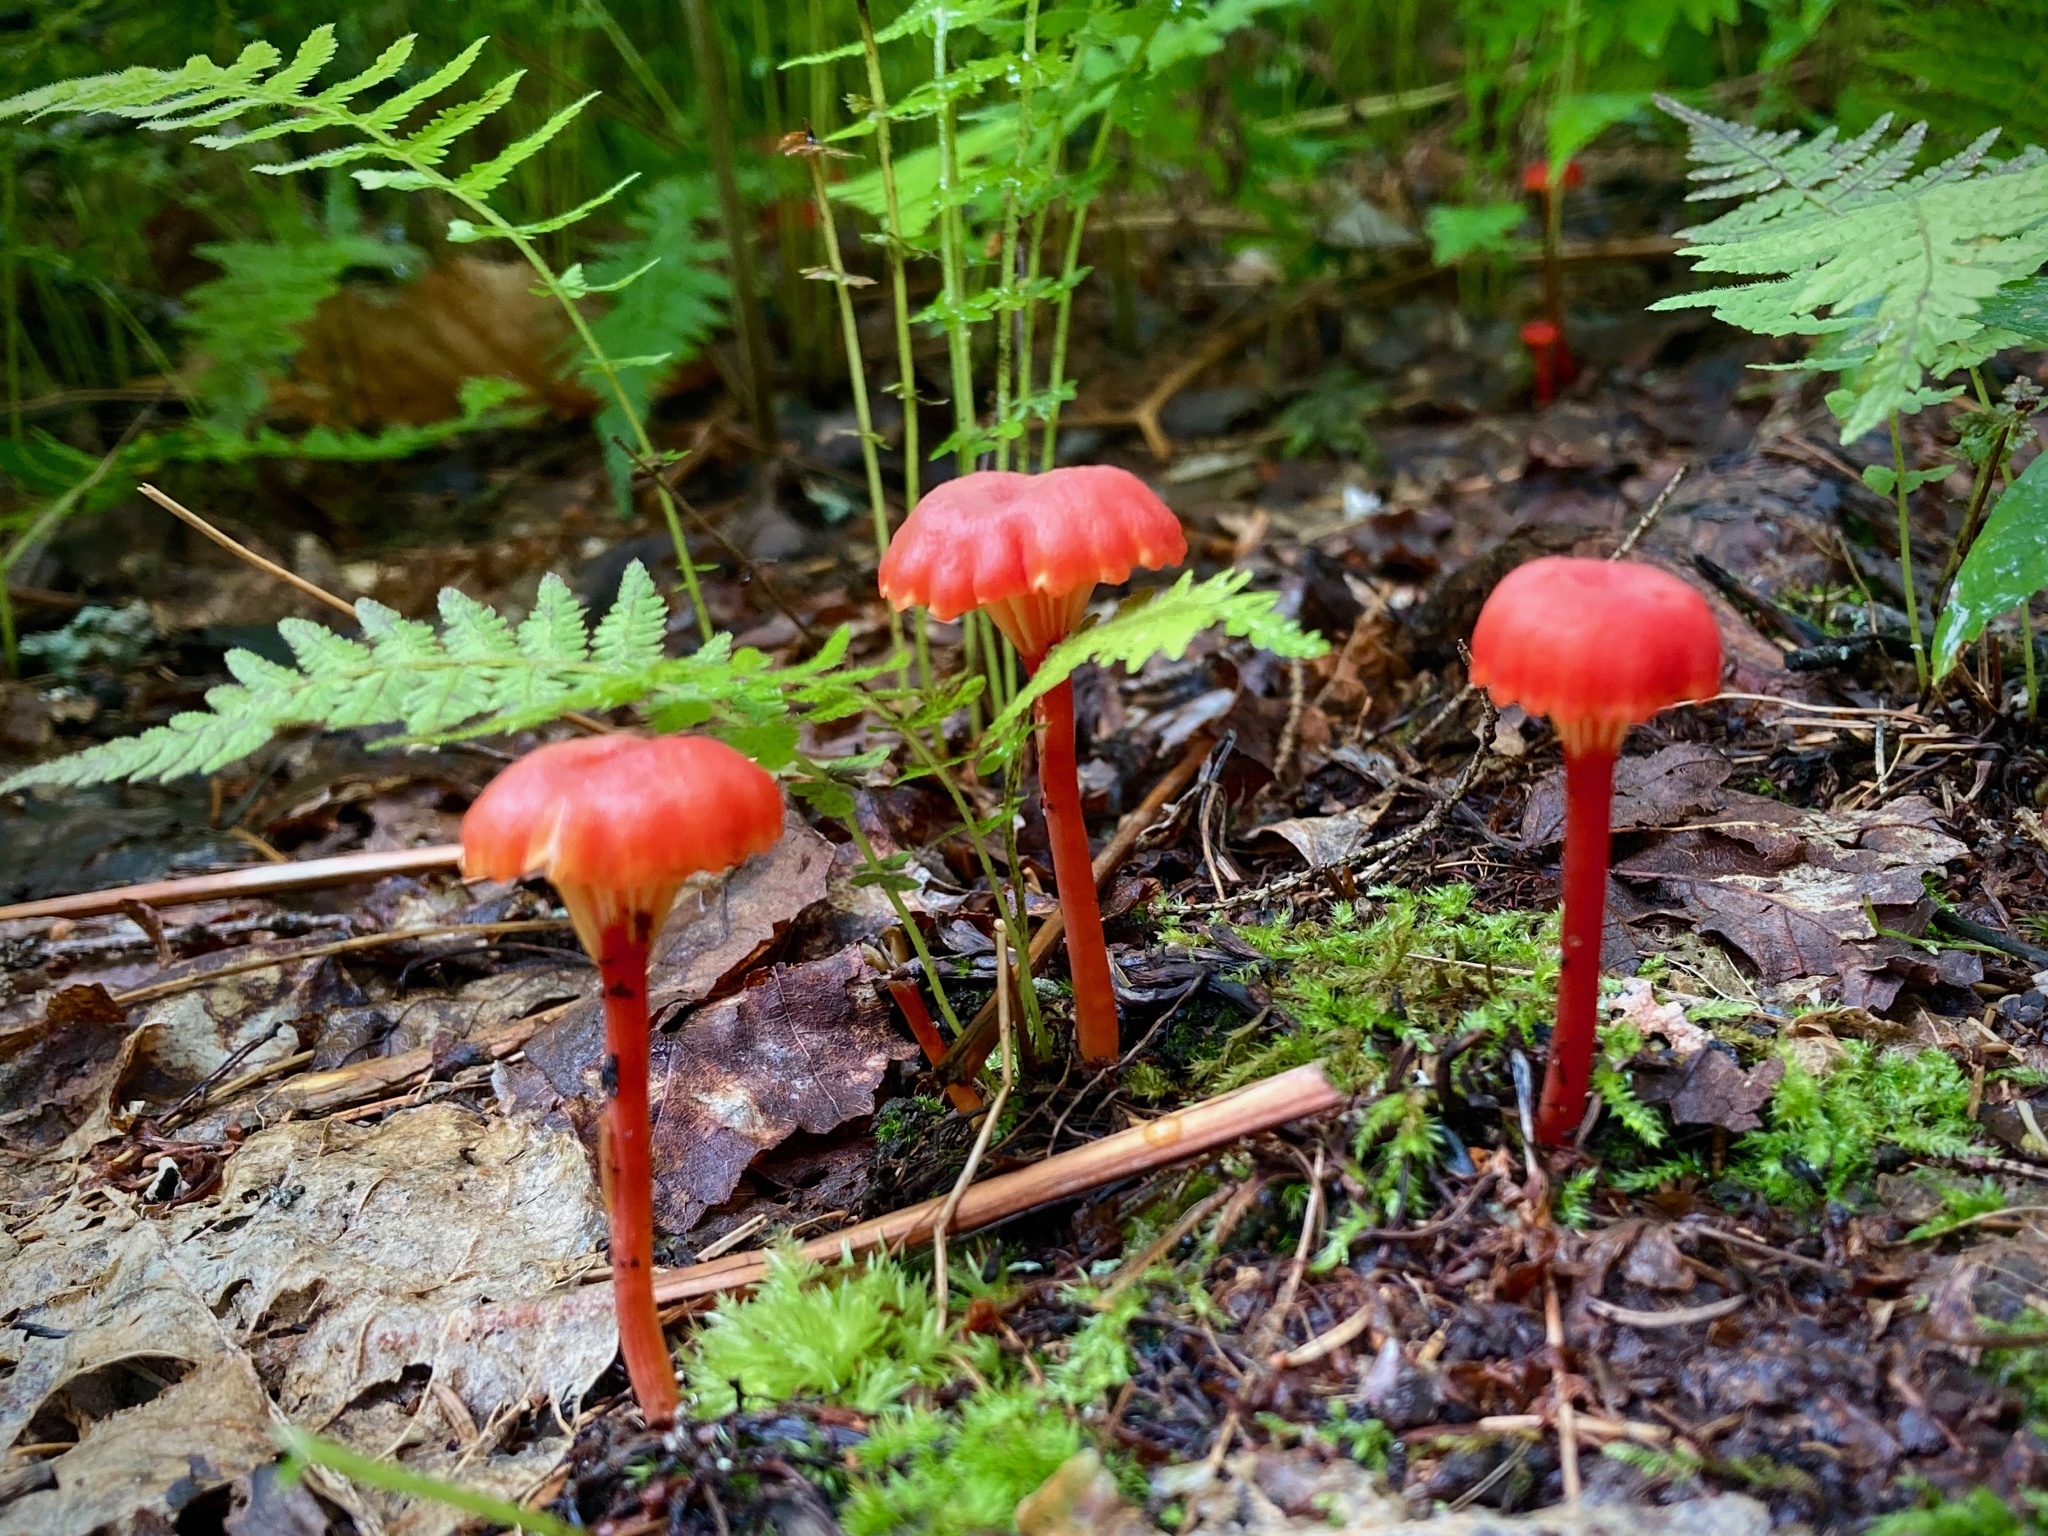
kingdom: Fungi
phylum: Basidiomycota
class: Agaricomycetes
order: Agaricales
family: Hygrophoraceae
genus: Hygrocybe
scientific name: Hygrocybe cantharellus
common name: Goblet waxcap
